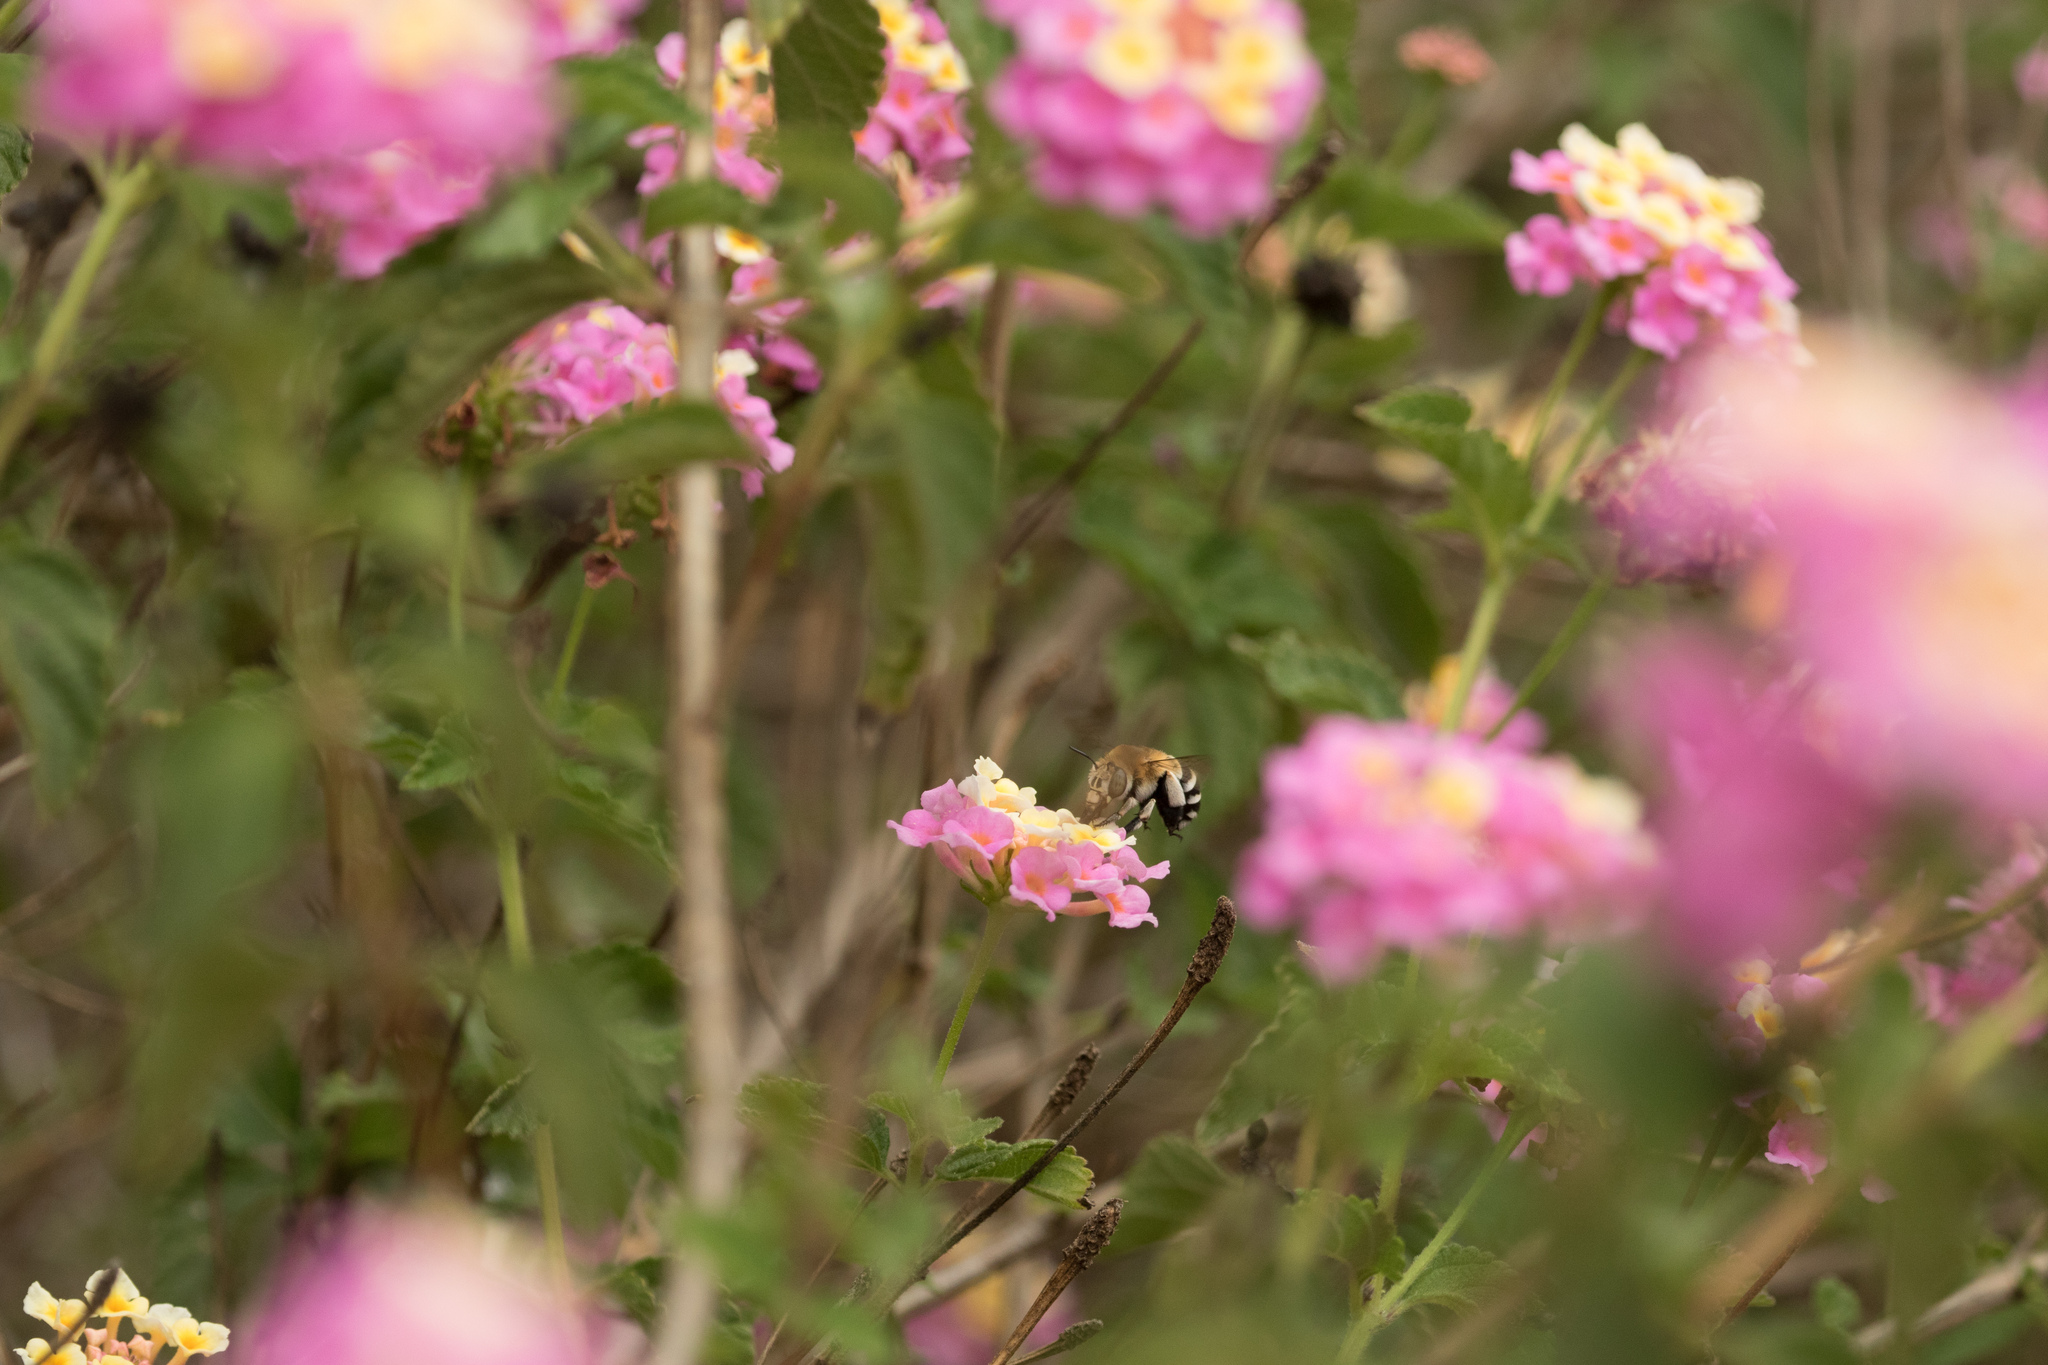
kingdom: Animalia
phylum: Arthropoda
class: Insecta
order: Hymenoptera
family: Apidae
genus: Amegilla
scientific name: Amegilla quadrifasciata
